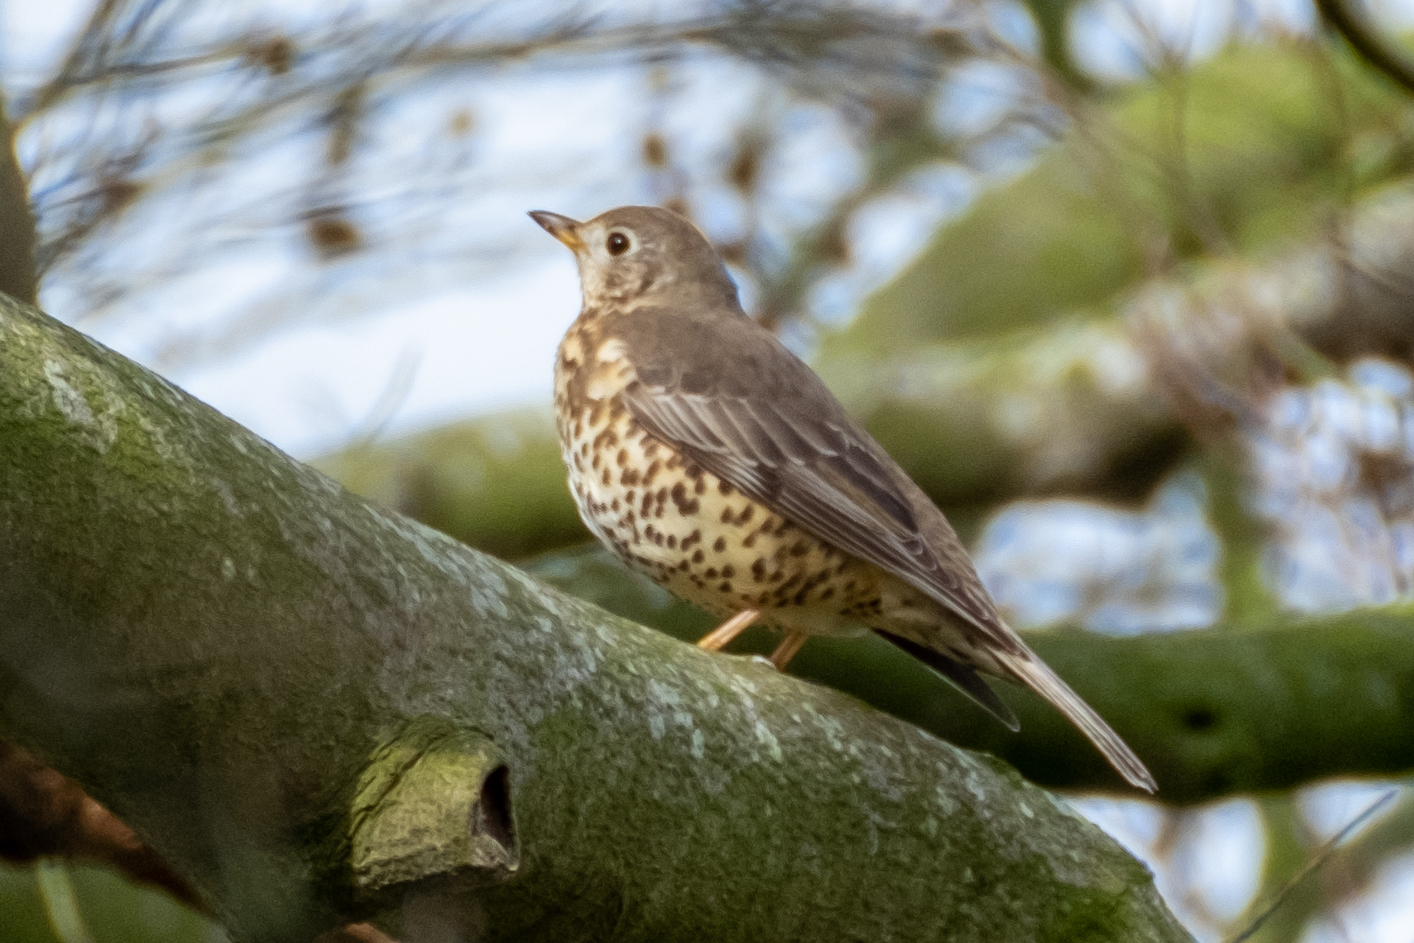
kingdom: Animalia
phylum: Chordata
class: Aves
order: Passeriformes
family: Turdidae
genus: Turdus
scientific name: Turdus viscivorus
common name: Mistle thrush
